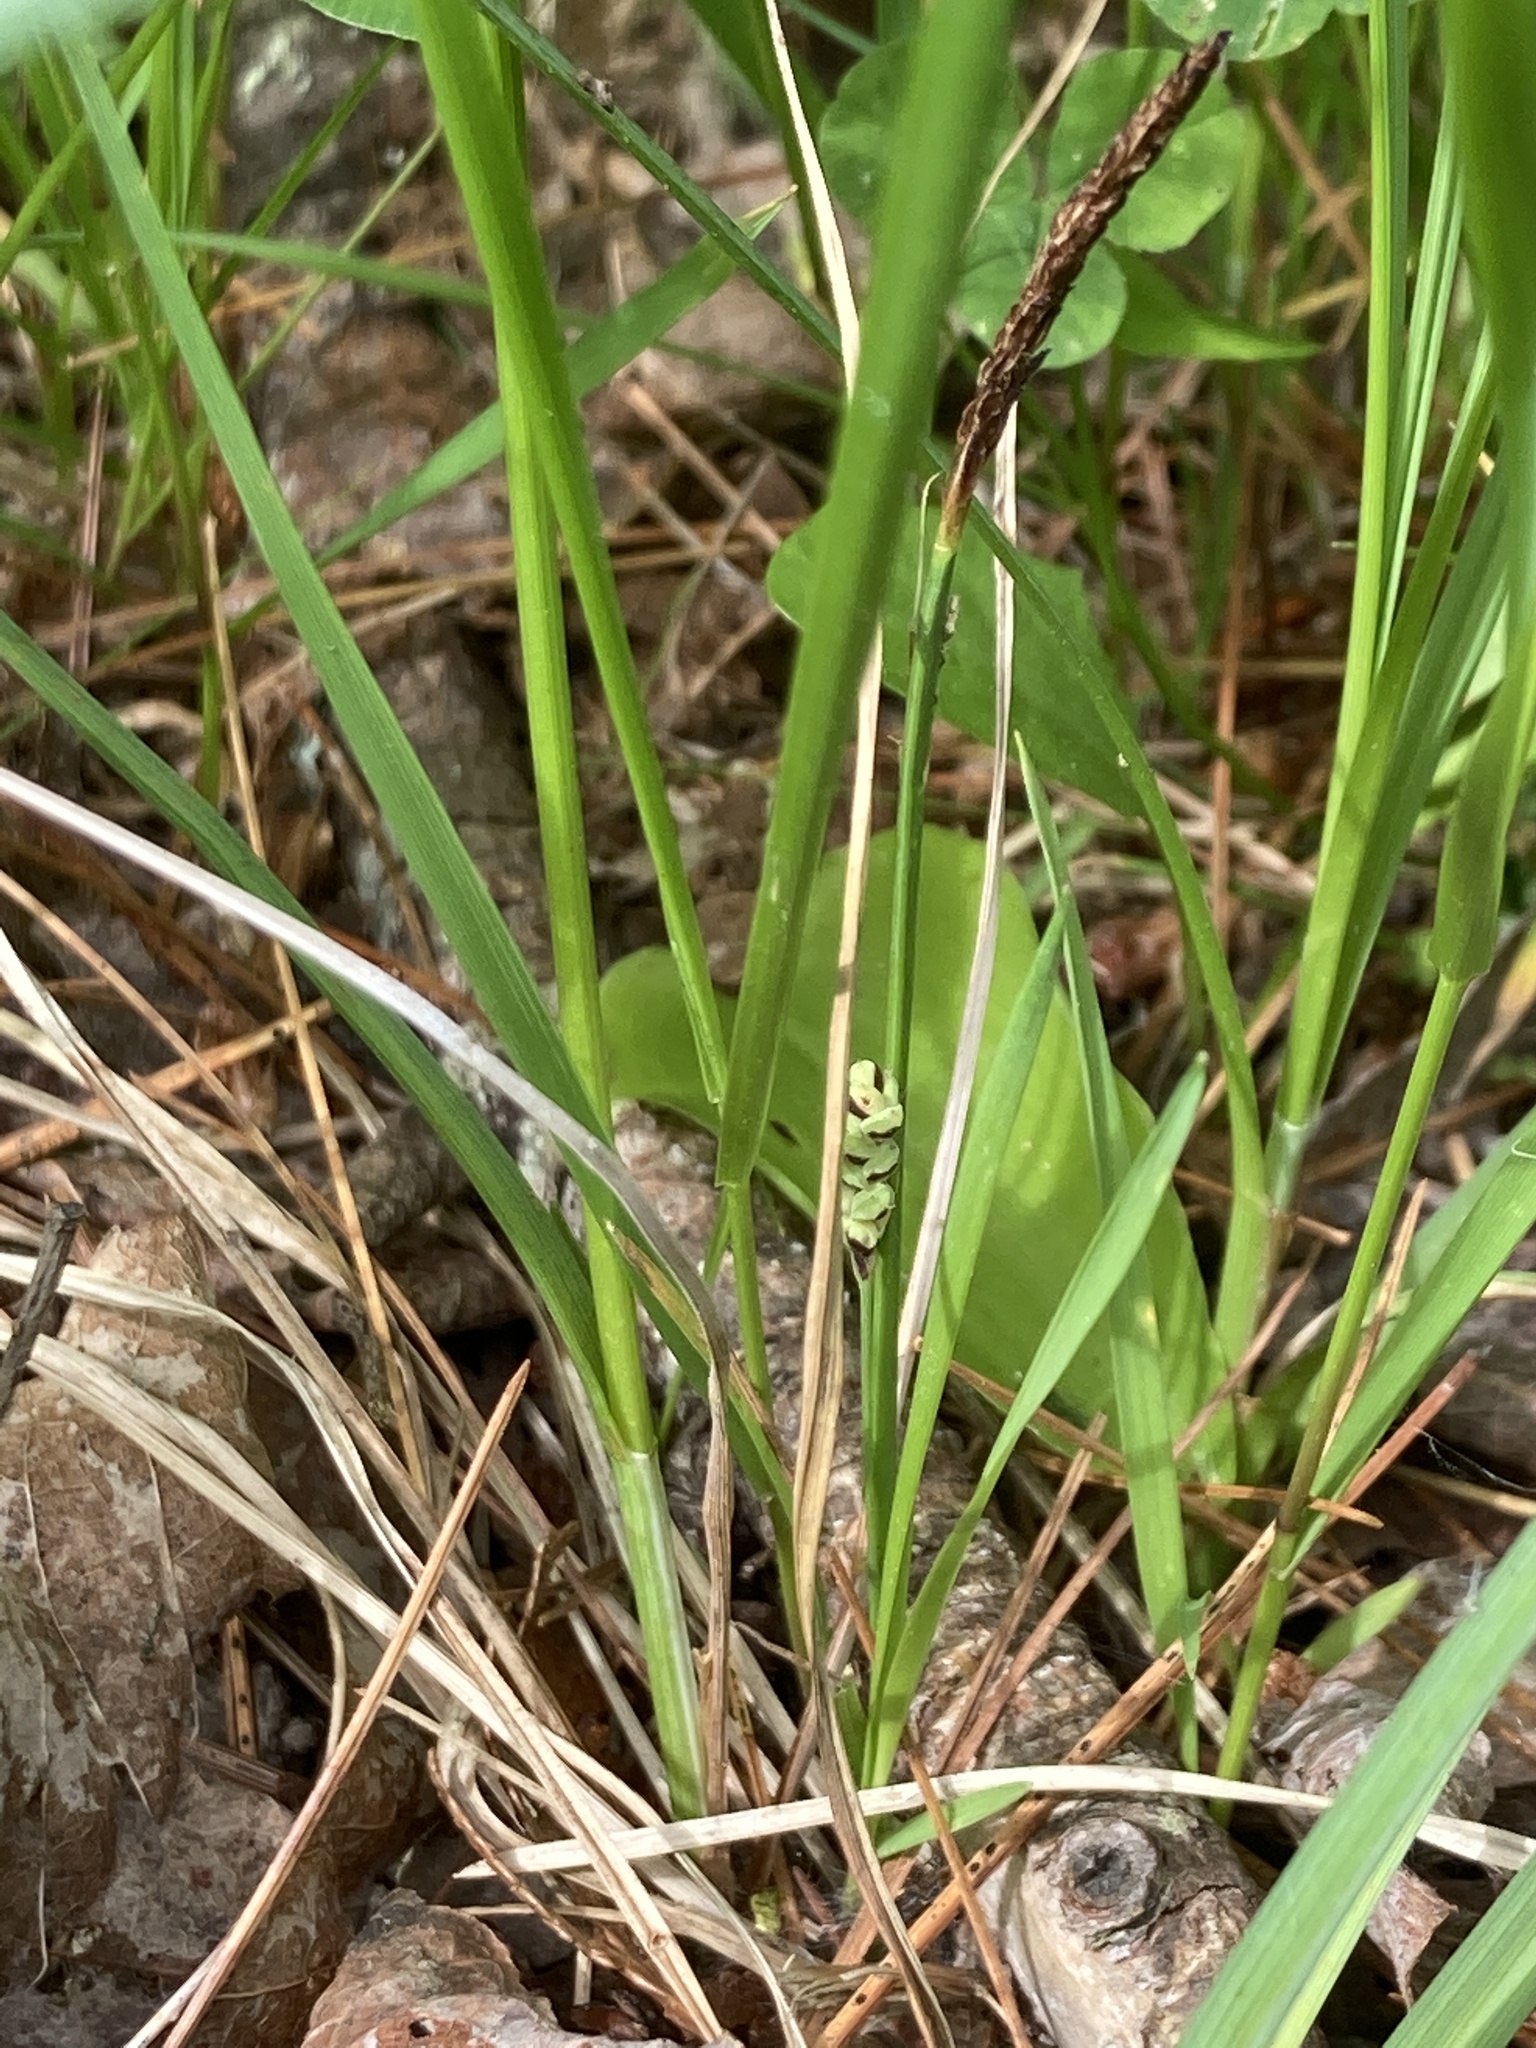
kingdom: Plantae
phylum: Tracheophyta
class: Liliopsida
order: Poales
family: Cyperaceae
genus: Carex
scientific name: Carex nigra
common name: Common sedge
